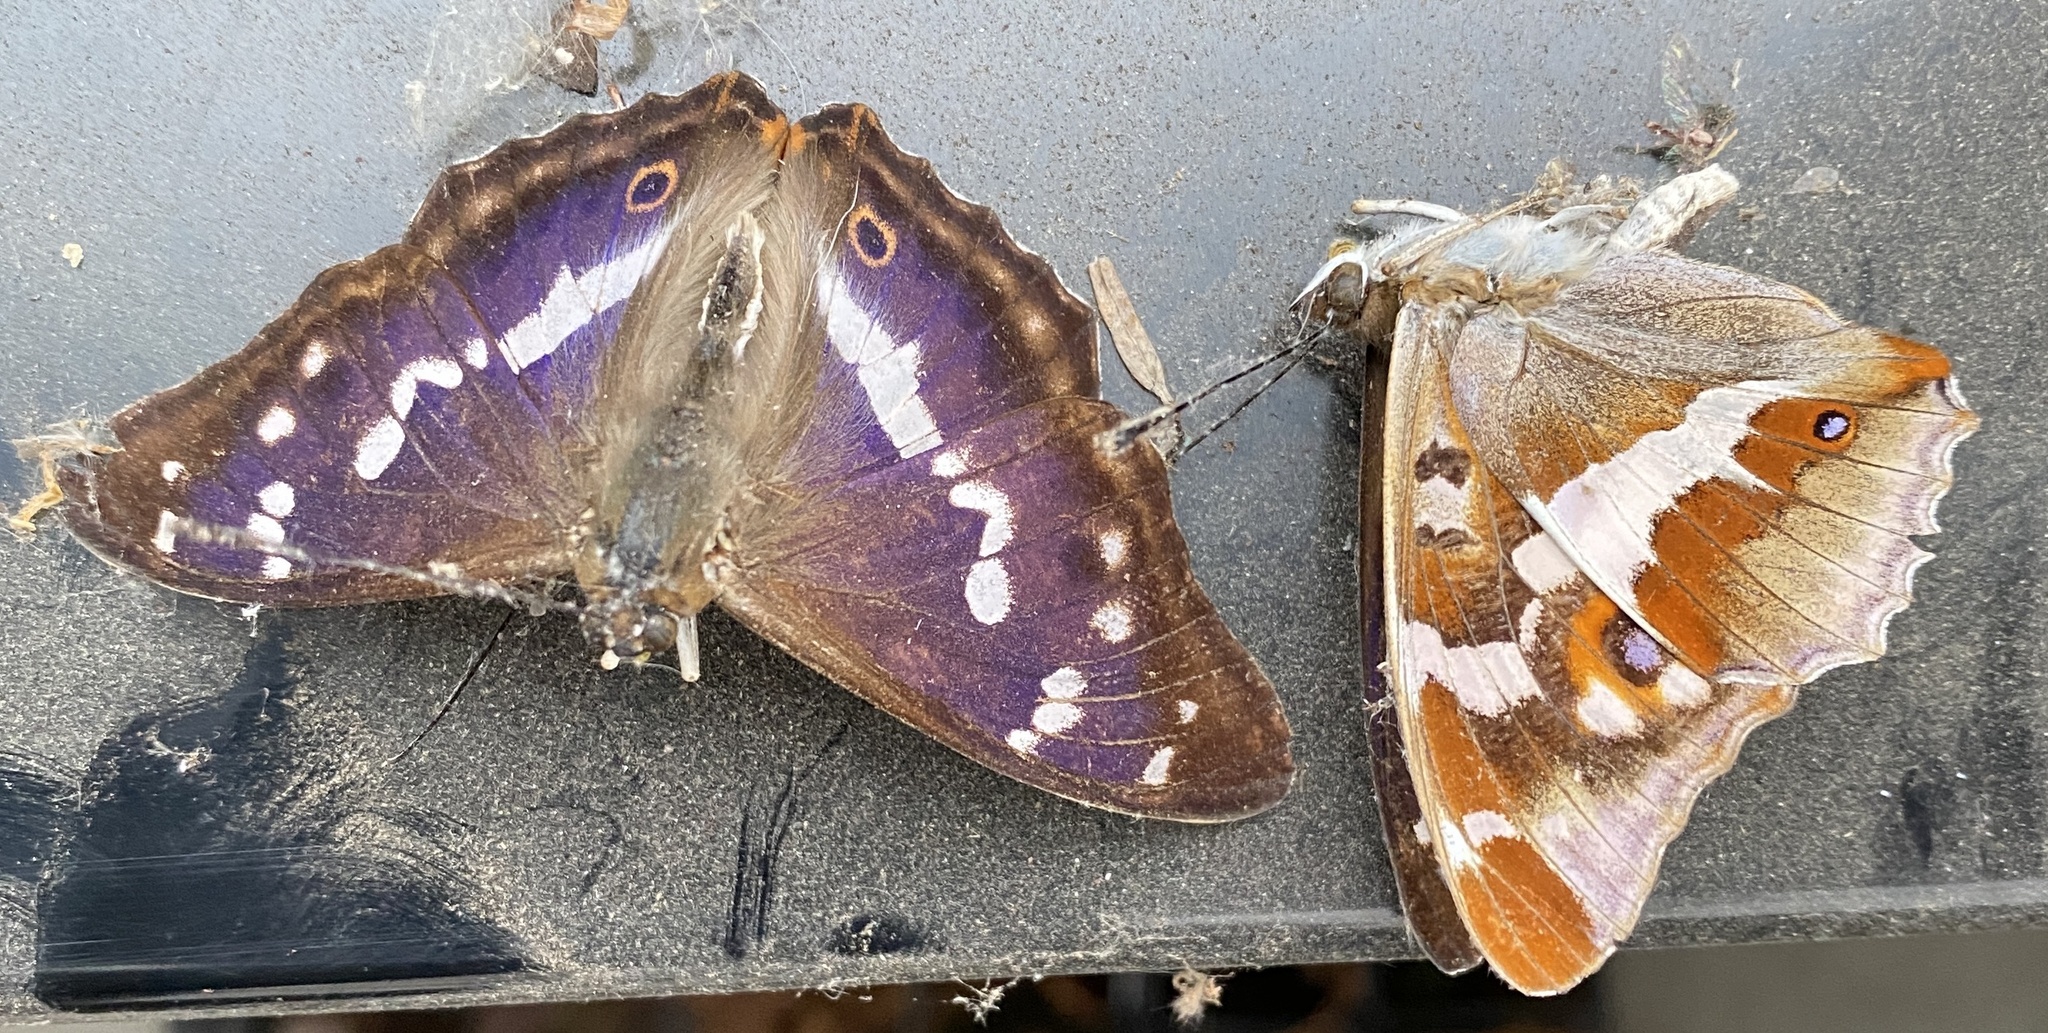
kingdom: Animalia
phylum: Arthropoda
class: Insecta
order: Lepidoptera
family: Nymphalidae
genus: Apatura
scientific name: Apatura iris
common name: Purple emperor
